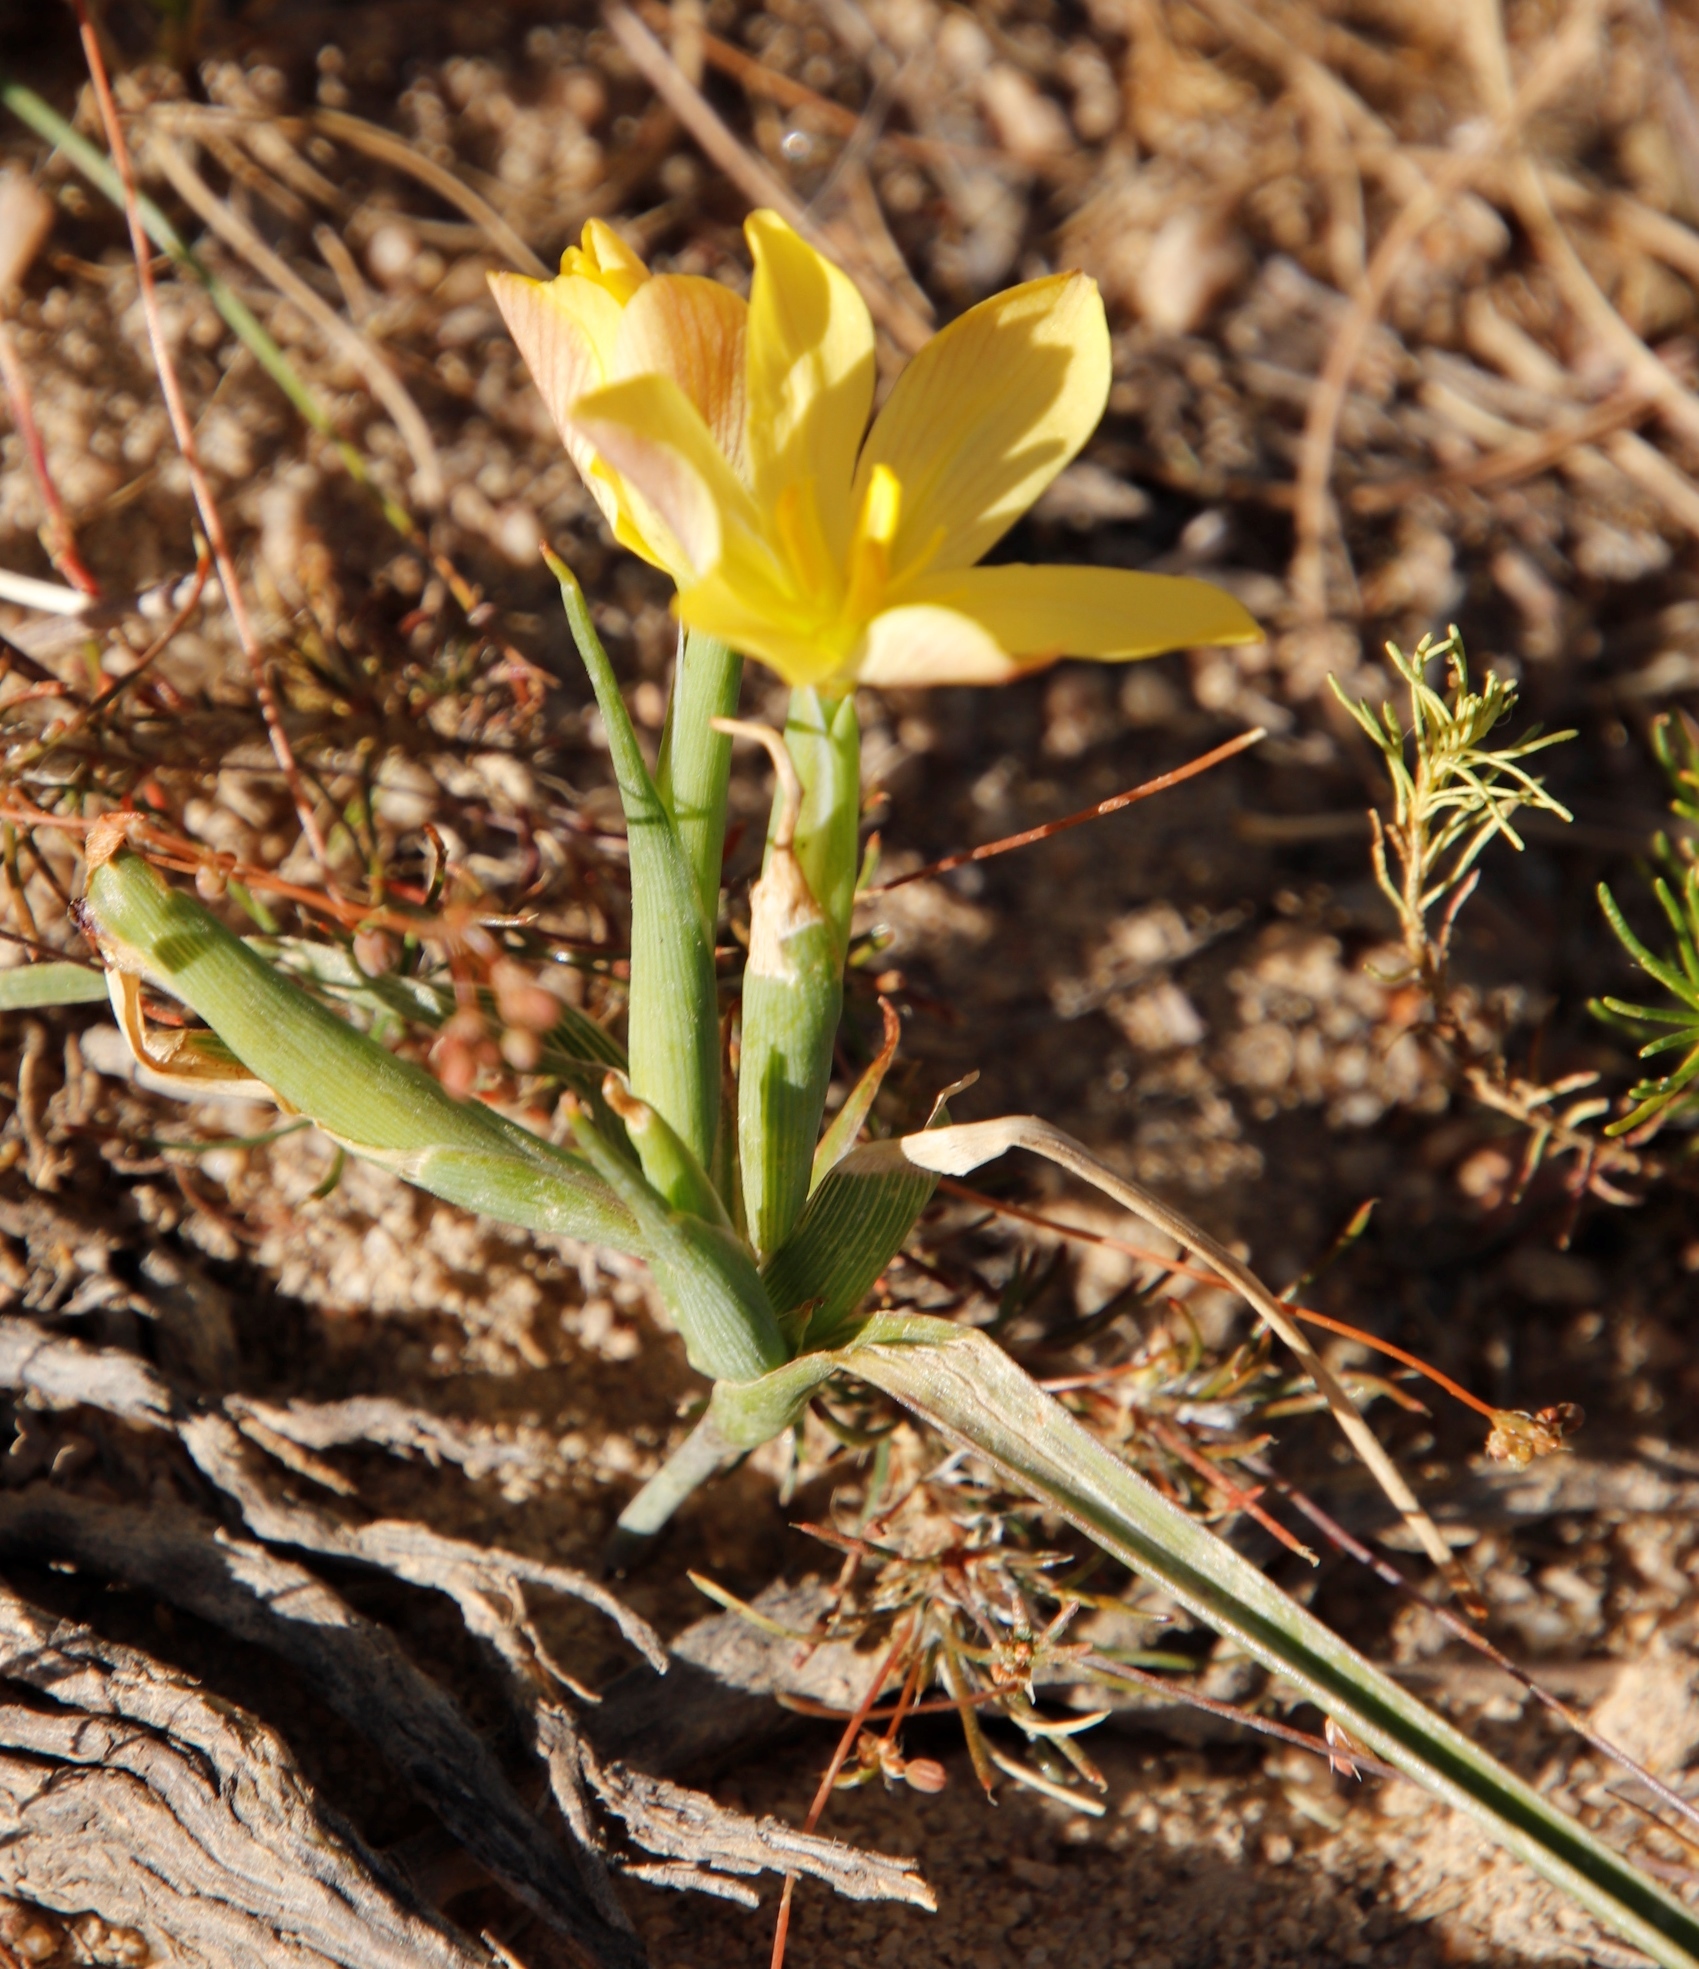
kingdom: Plantae
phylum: Tracheophyta
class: Liliopsida
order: Asparagales
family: Iridaceae
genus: Moraea
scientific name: Moraea nana
